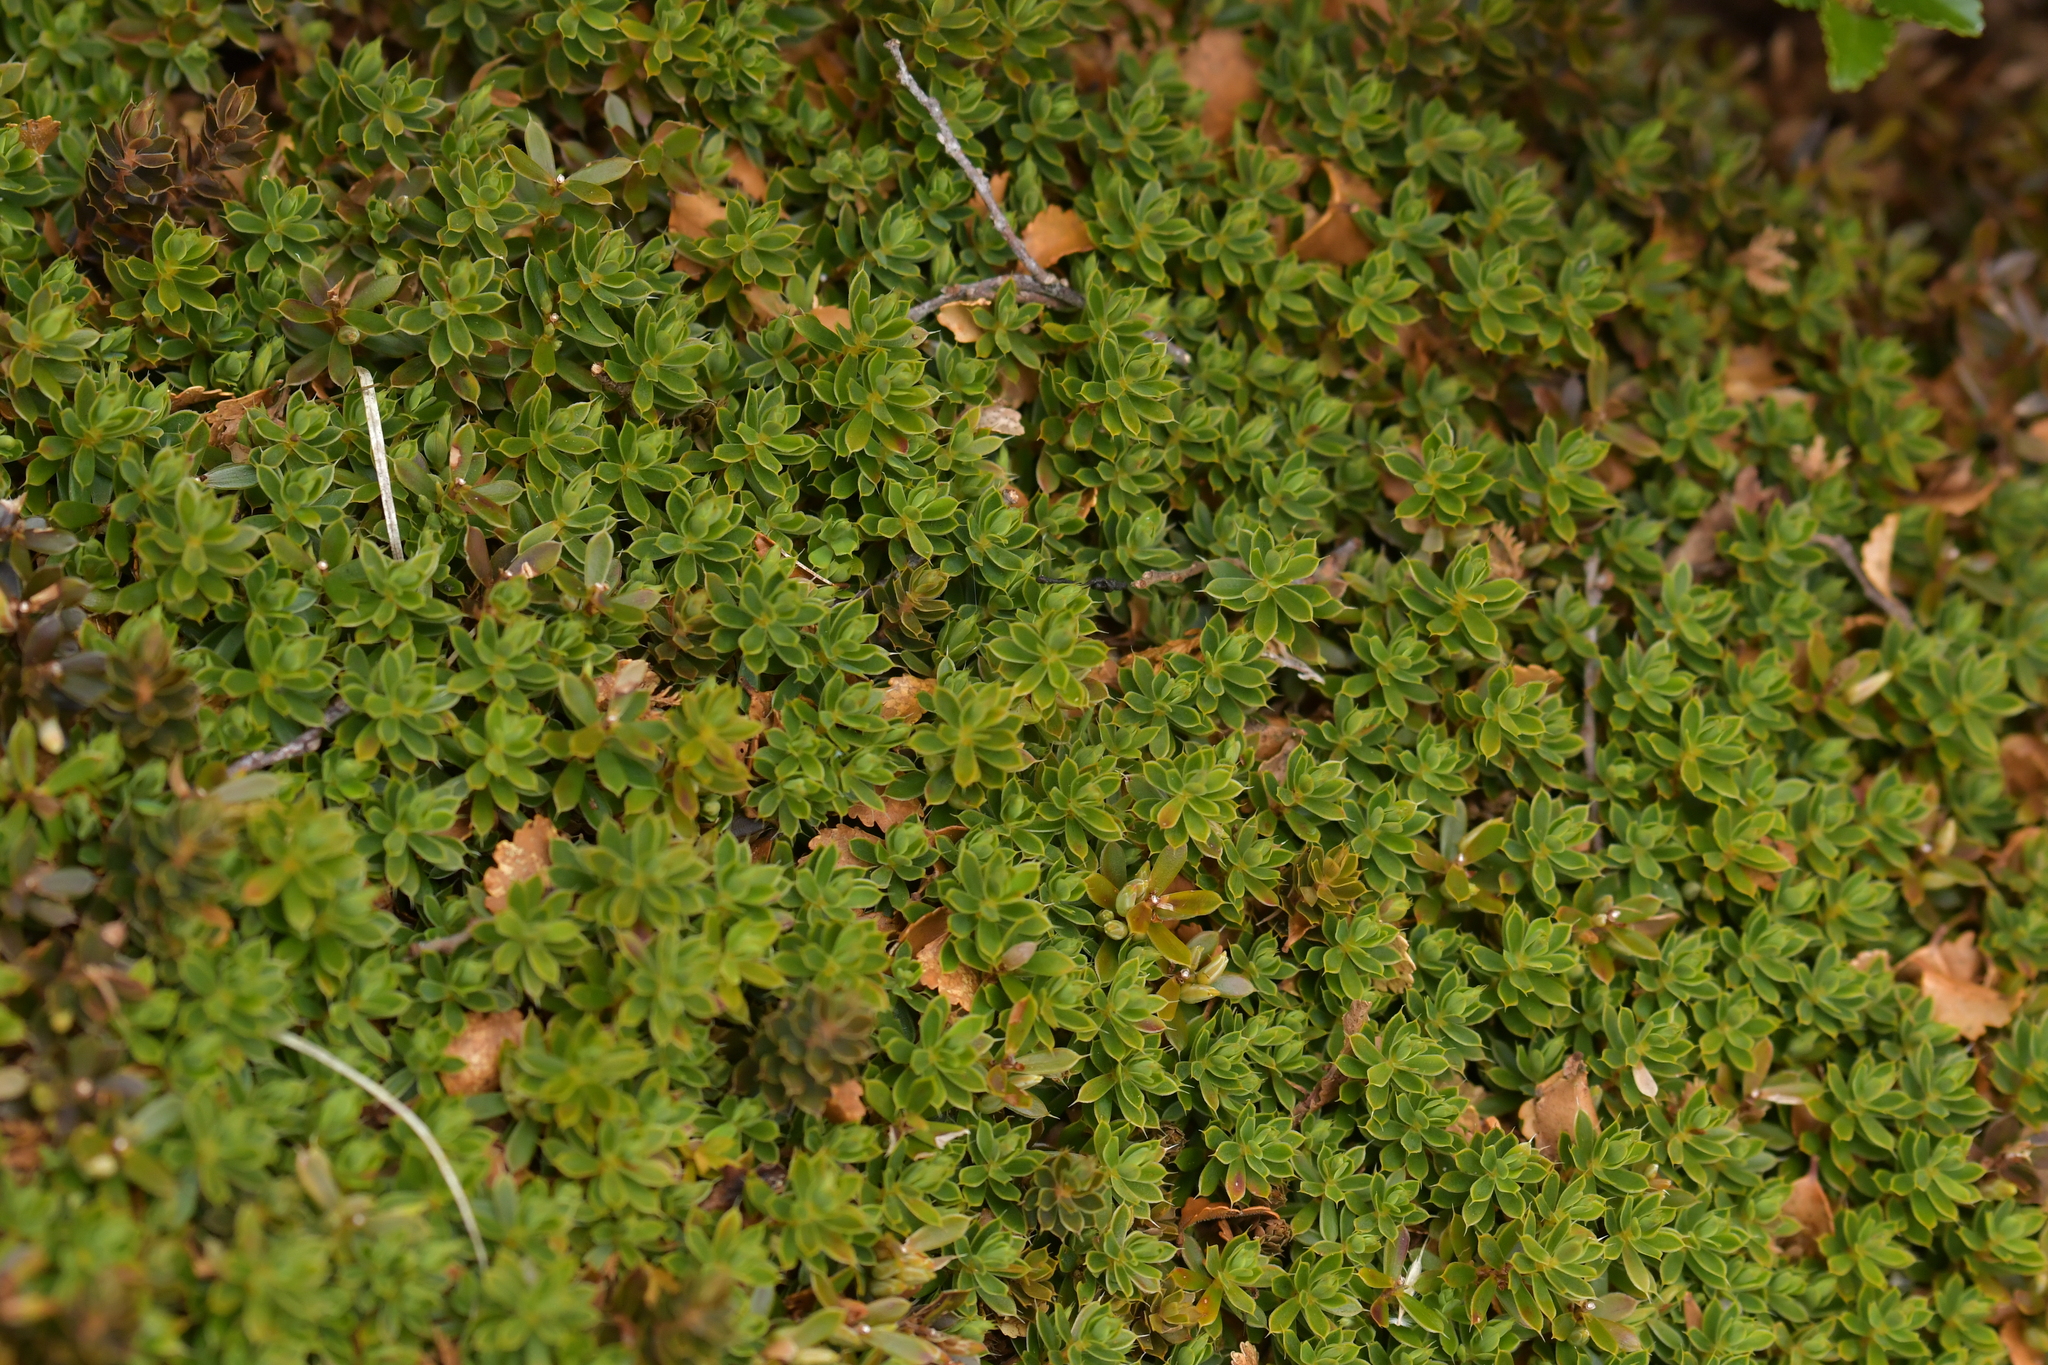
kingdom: Plantae
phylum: Tracheophyta
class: Magnoliopsida
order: Ericales
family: Ericaceae
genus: Styphelia
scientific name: Styphelia nesophila
